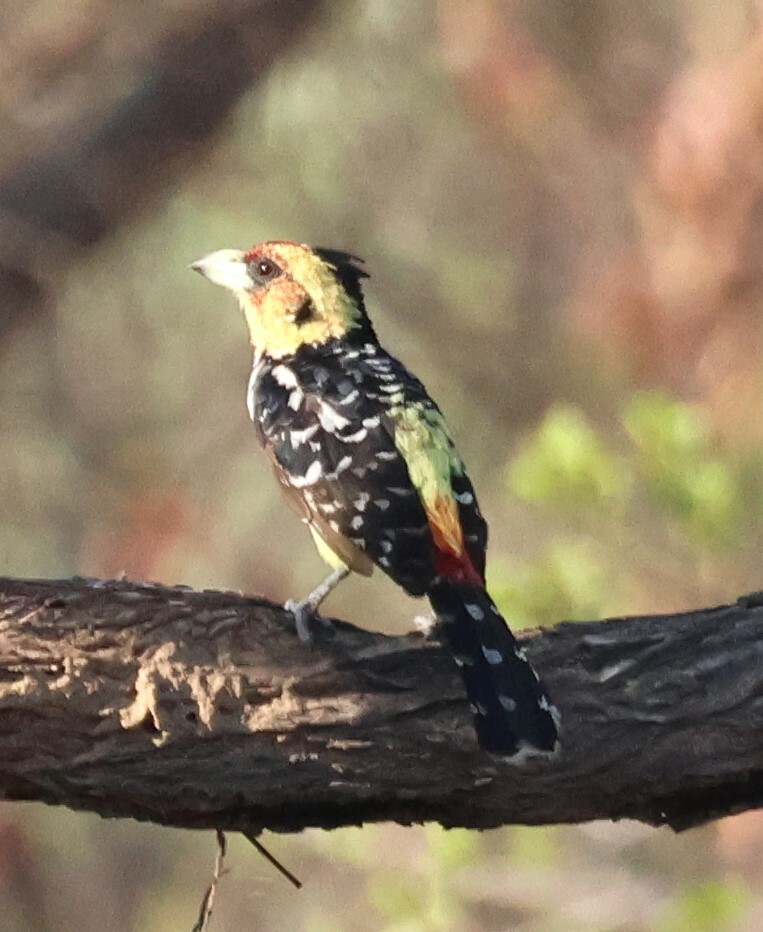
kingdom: Animalia
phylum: Chordata
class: Aves
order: Piciformes
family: Lybiidae
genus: Trachyphonus
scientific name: Trachyphonus vaillantii
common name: Crested barbet
